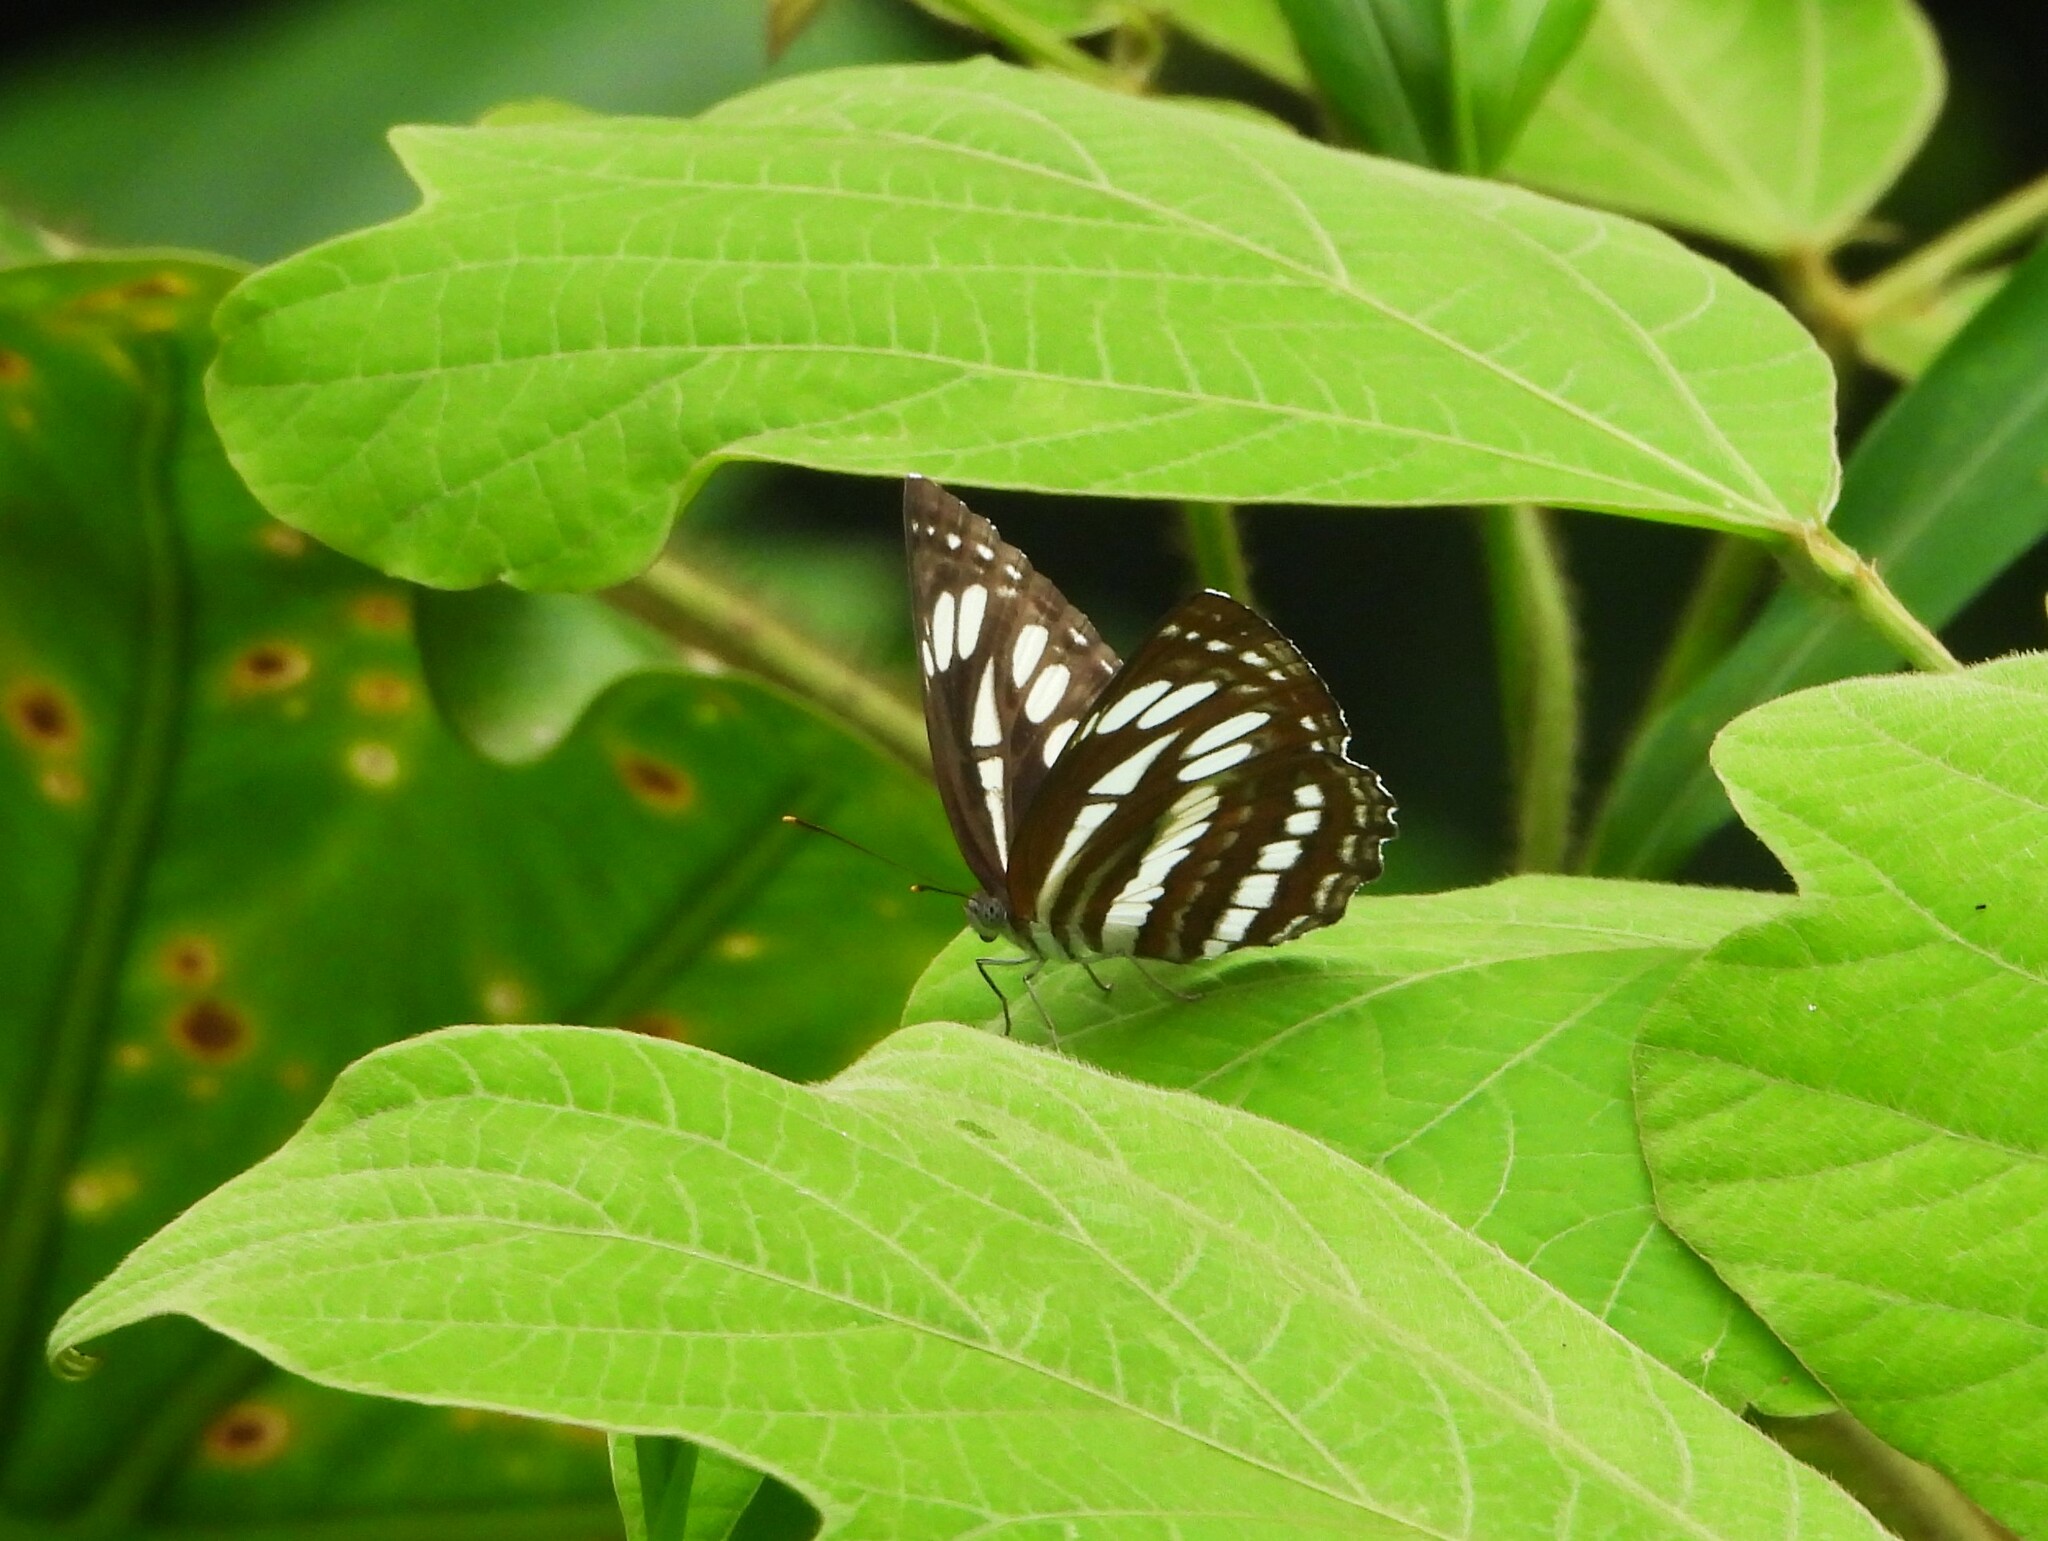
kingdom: Animalia
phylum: Arthropoda
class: Insecta
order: Lepidoptera
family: Nymphalidae
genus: Neptis
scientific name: Neptis hylas
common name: Common sailer
